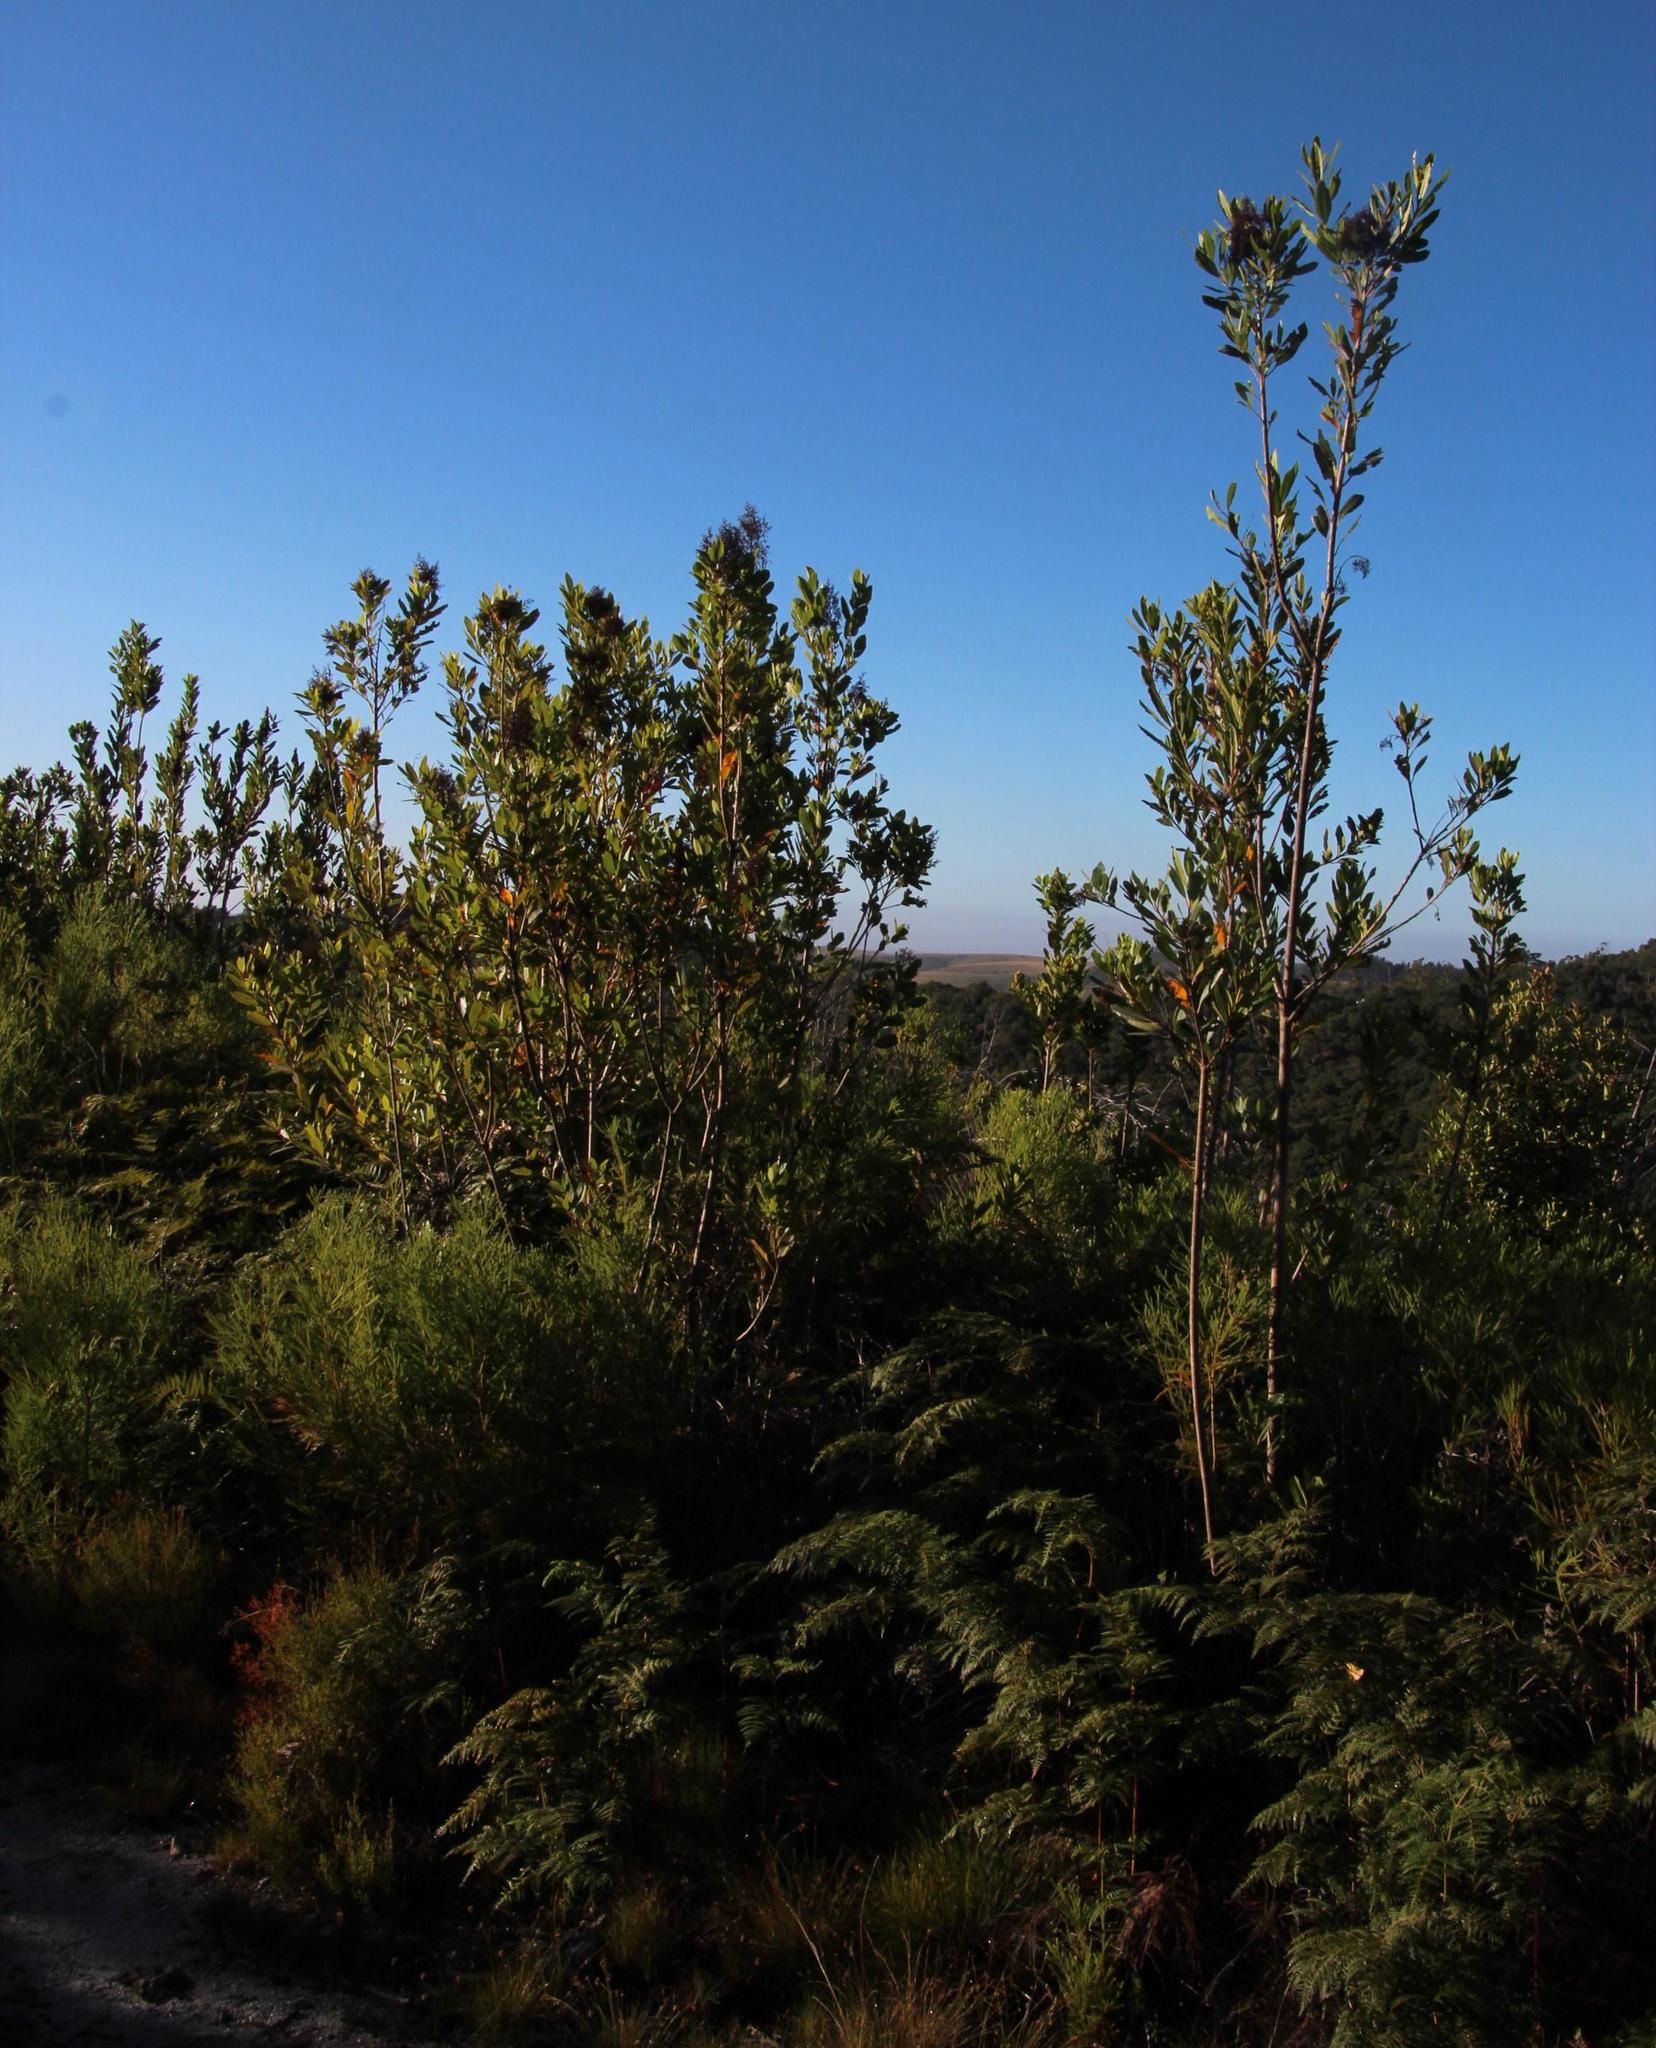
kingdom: Plantae
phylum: Tracheophyta
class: Magnoliopsida
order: Sapindales
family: Anacardiaceae
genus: Laurophyllus
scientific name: Laurophyllus capensis
